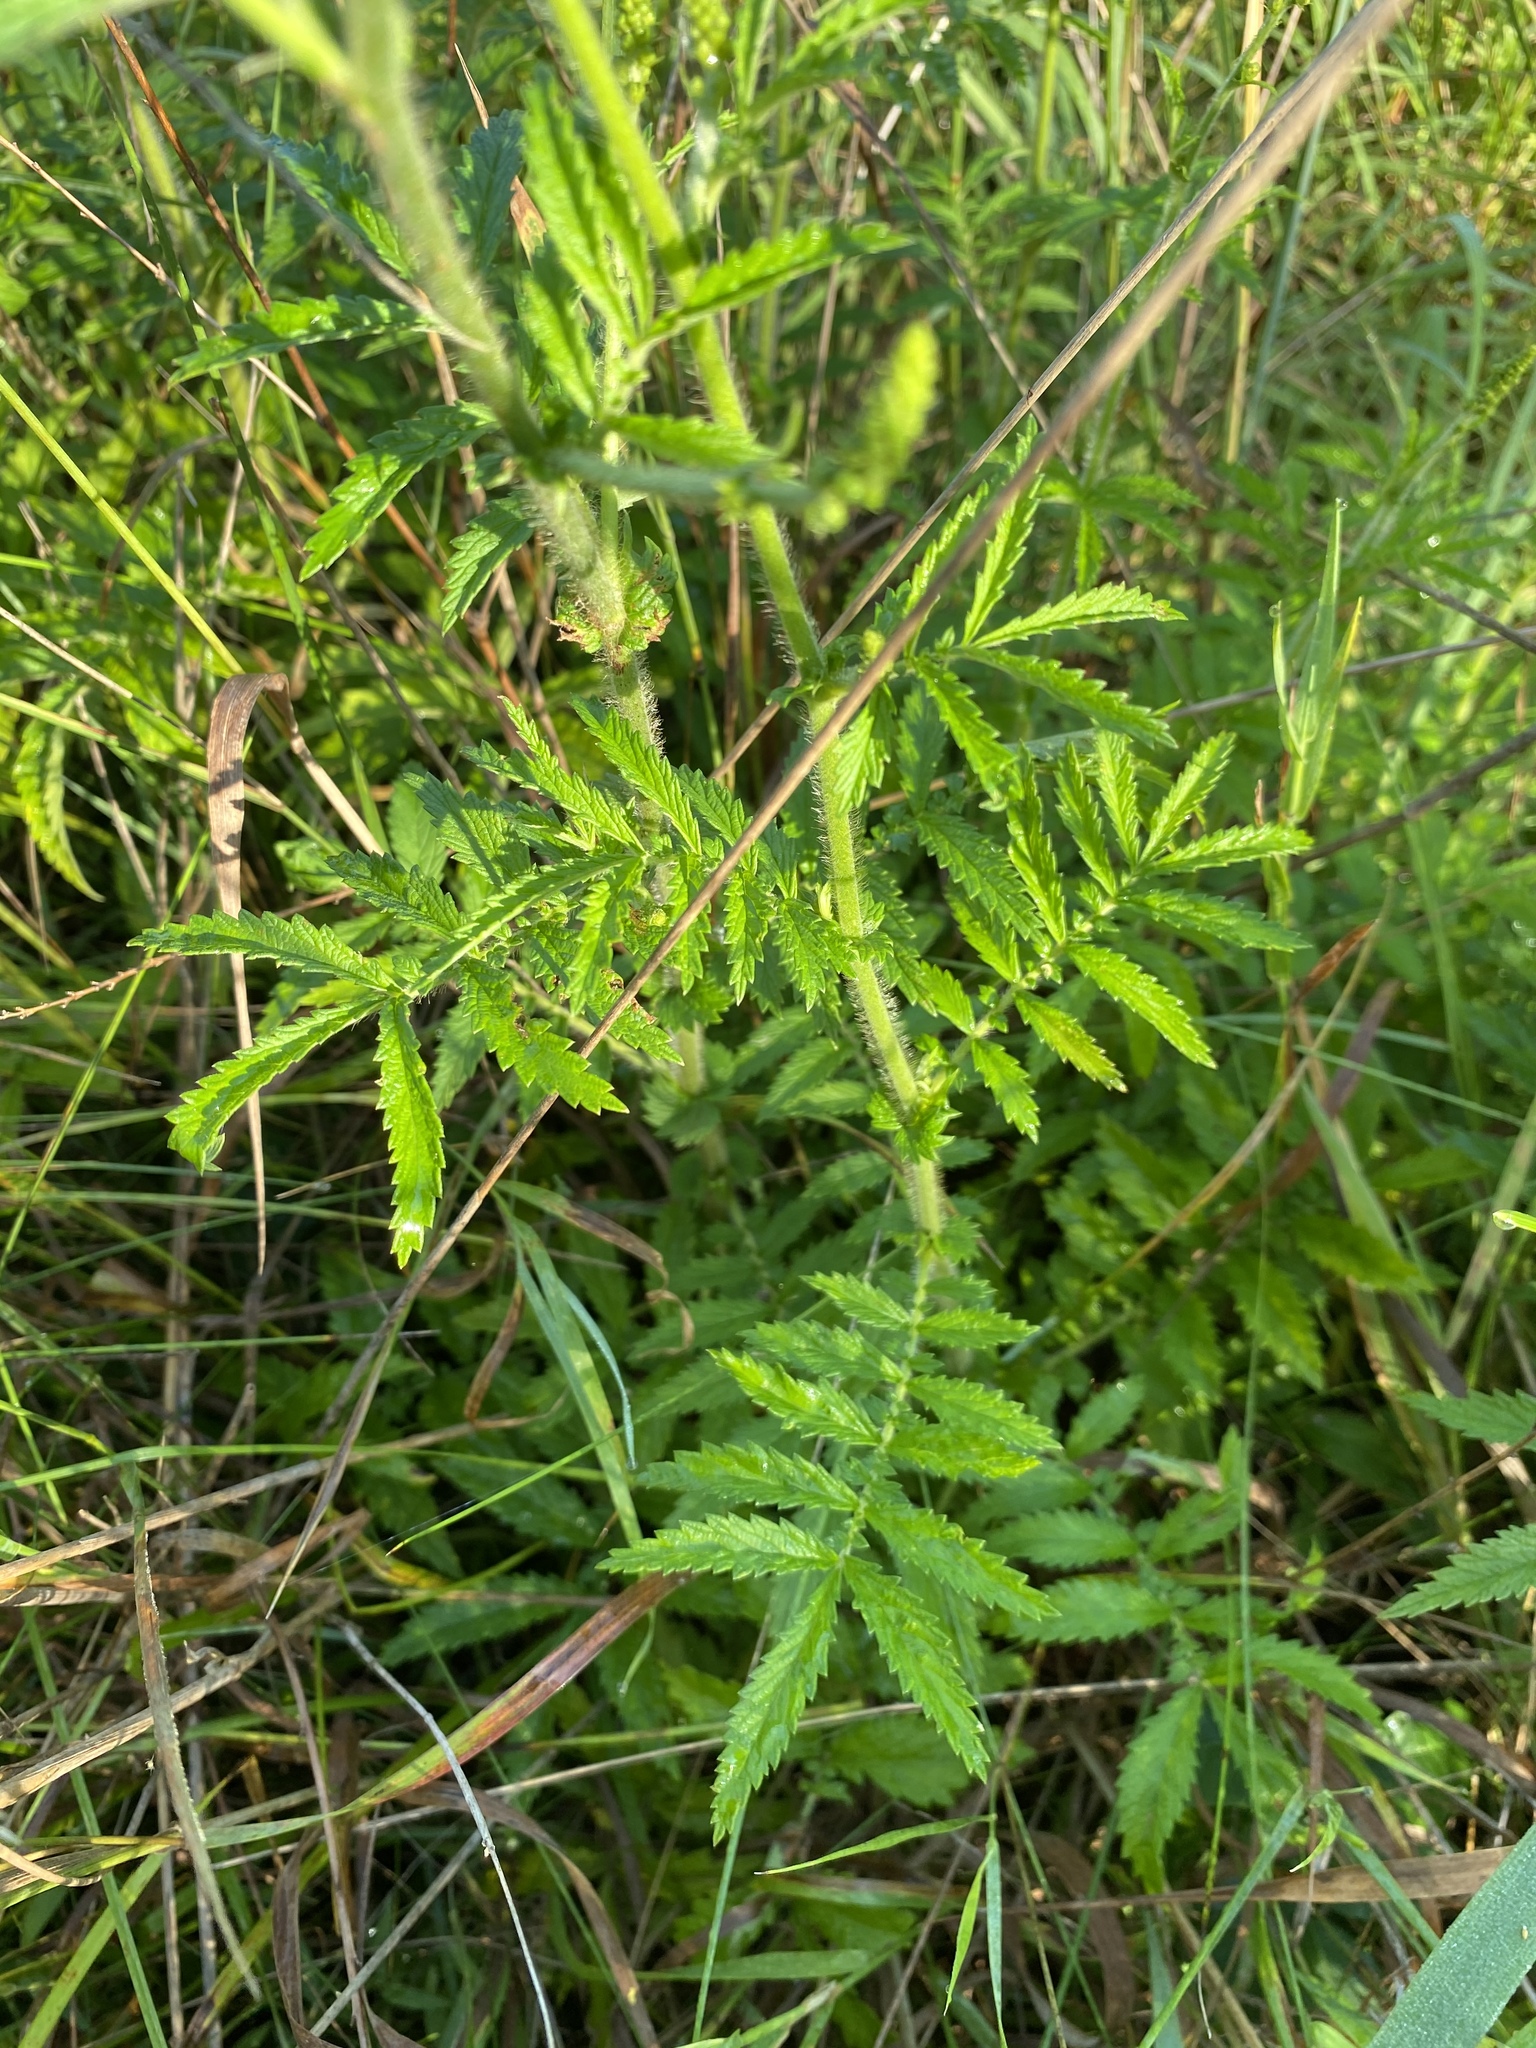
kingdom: Plantae
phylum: Tracheophyta
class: Magnoliopsida
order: Rosales
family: Rosaceae
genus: Agrimonia
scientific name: Agrimonia parviflora
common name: Harvest-lice
